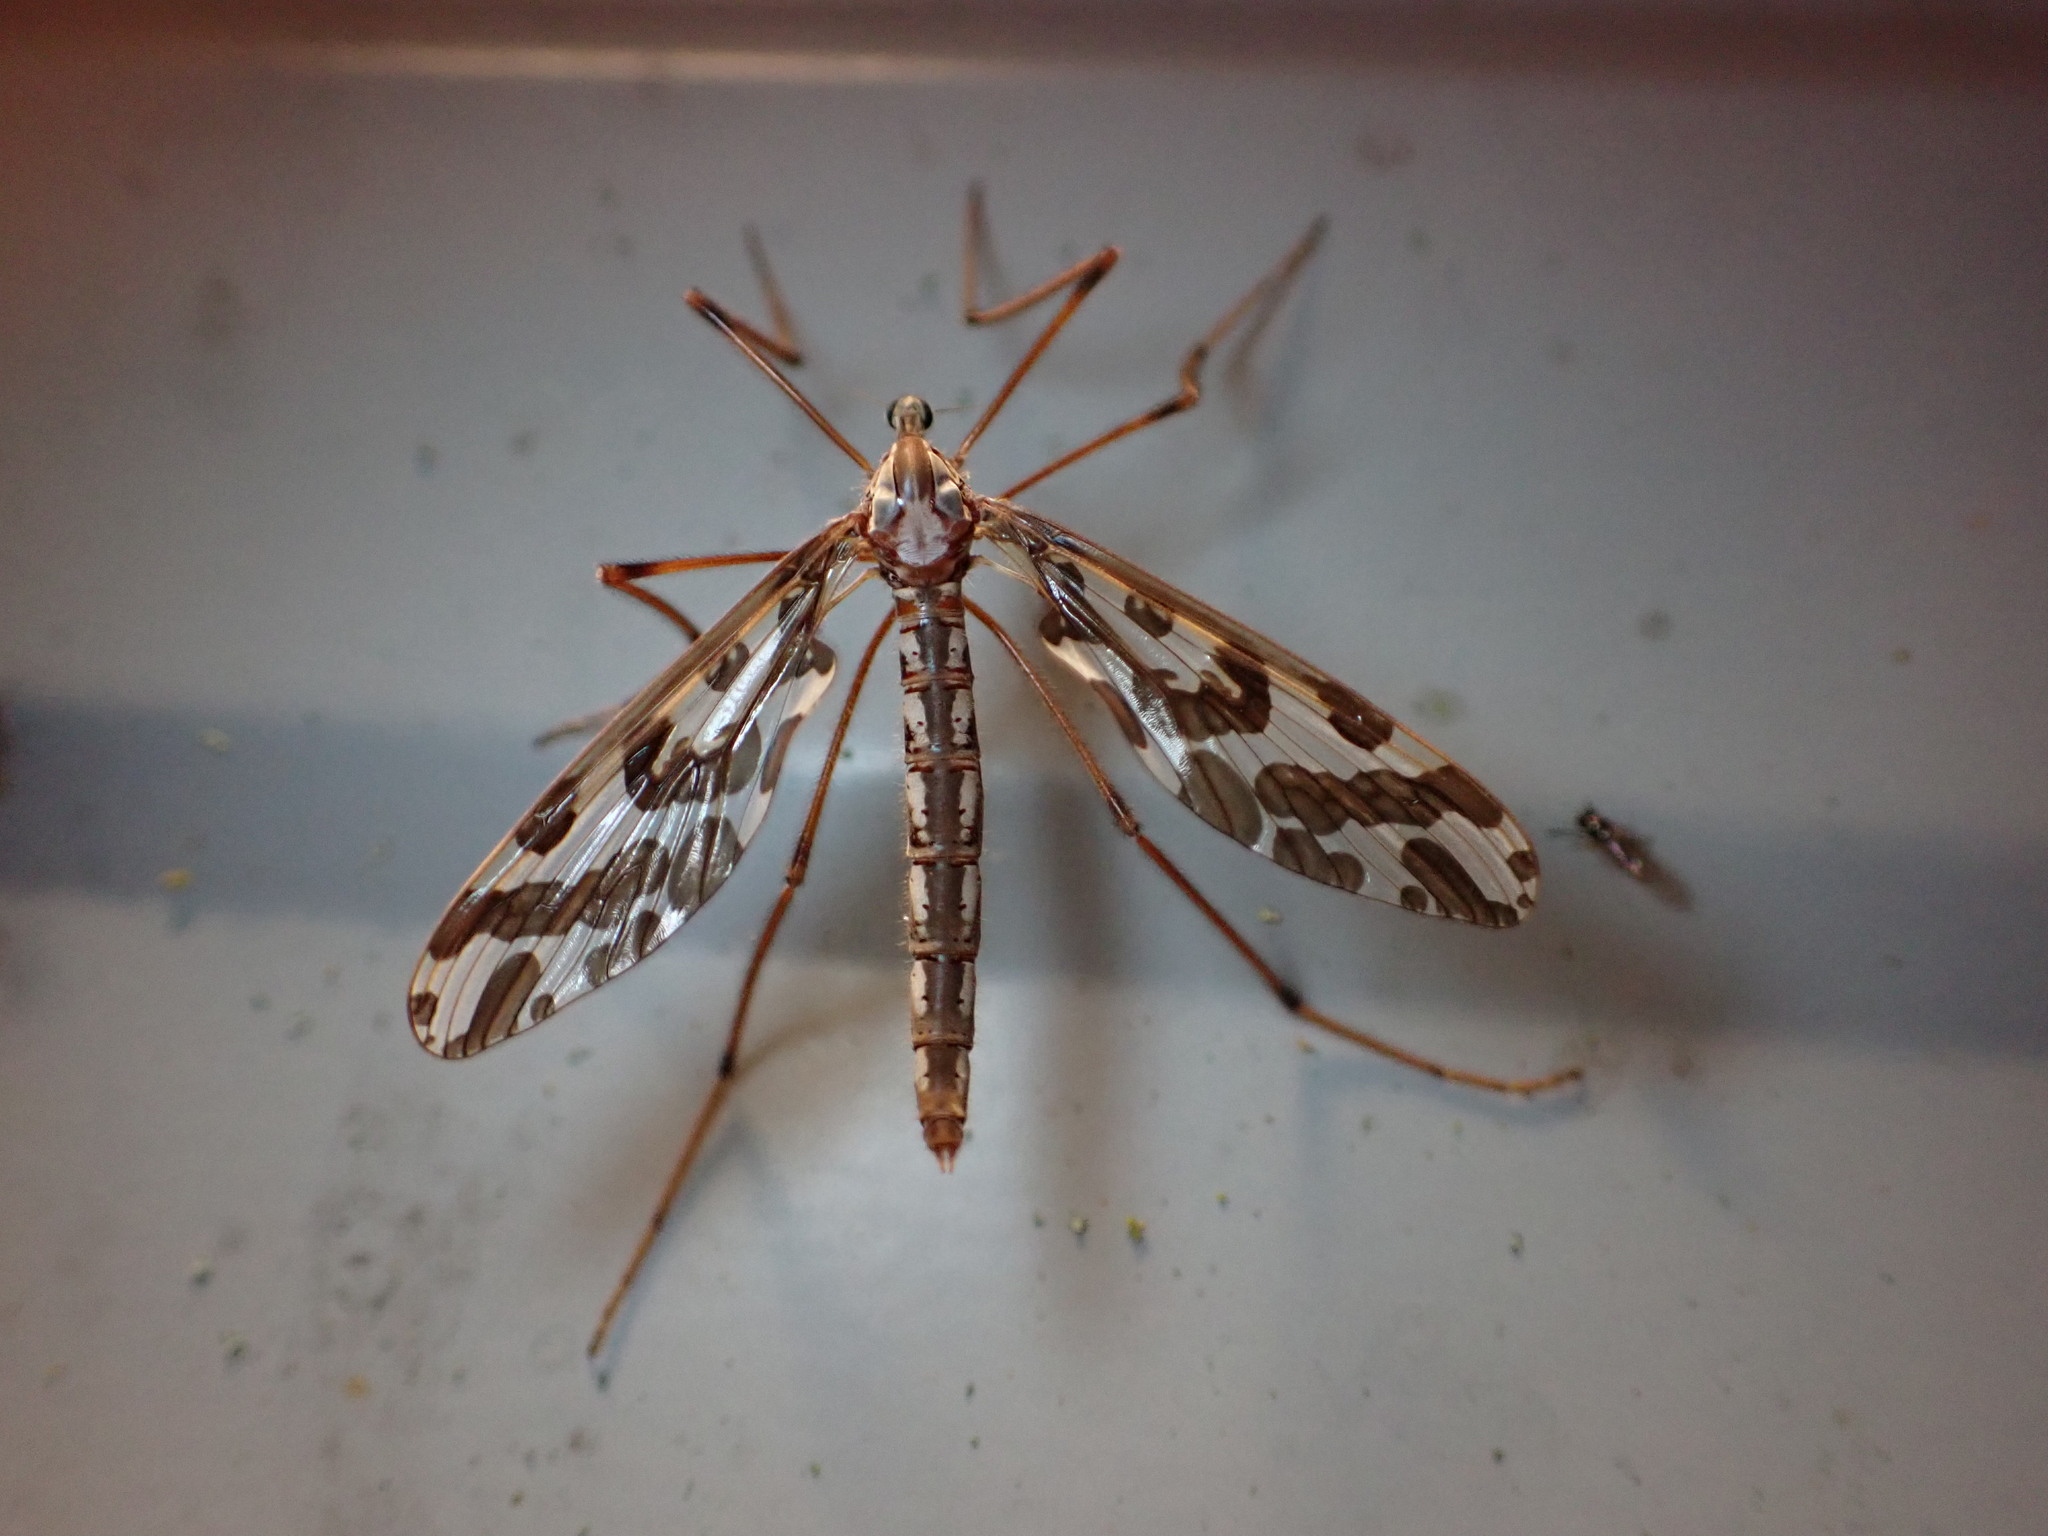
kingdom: Animalia
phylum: Arthropoda
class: Insecta
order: Diptera
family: Tanyderidae
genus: Tanyderus
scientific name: Tanyderus forcipatus
